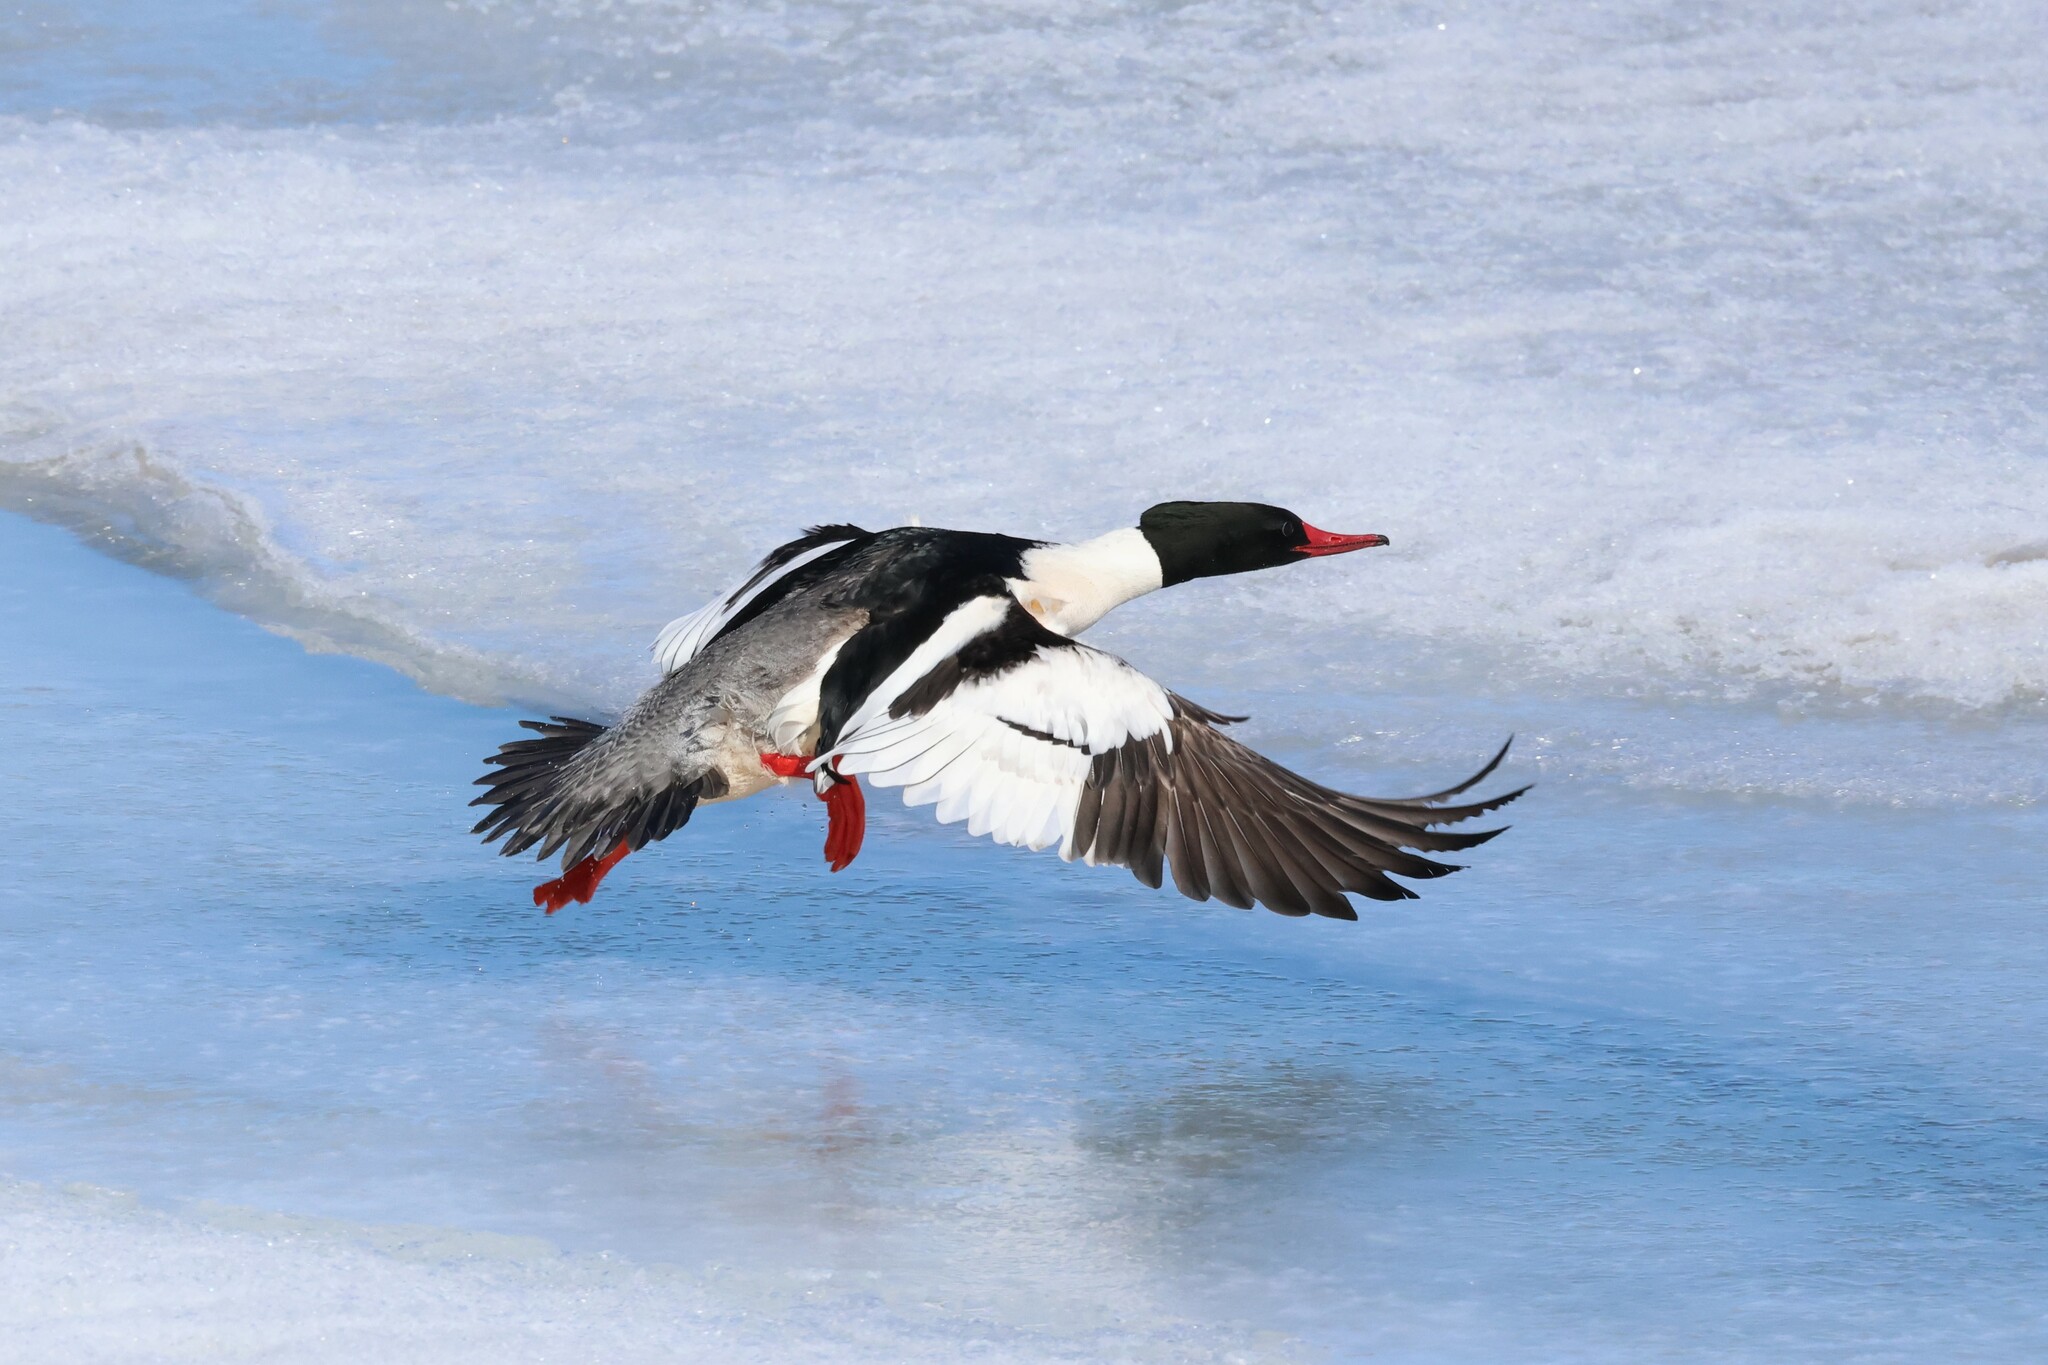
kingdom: Animalia
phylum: Chordata
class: Aves
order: Anseriformes
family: Anatidae
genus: Mergus
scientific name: Mergus merganser
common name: Common merganser
